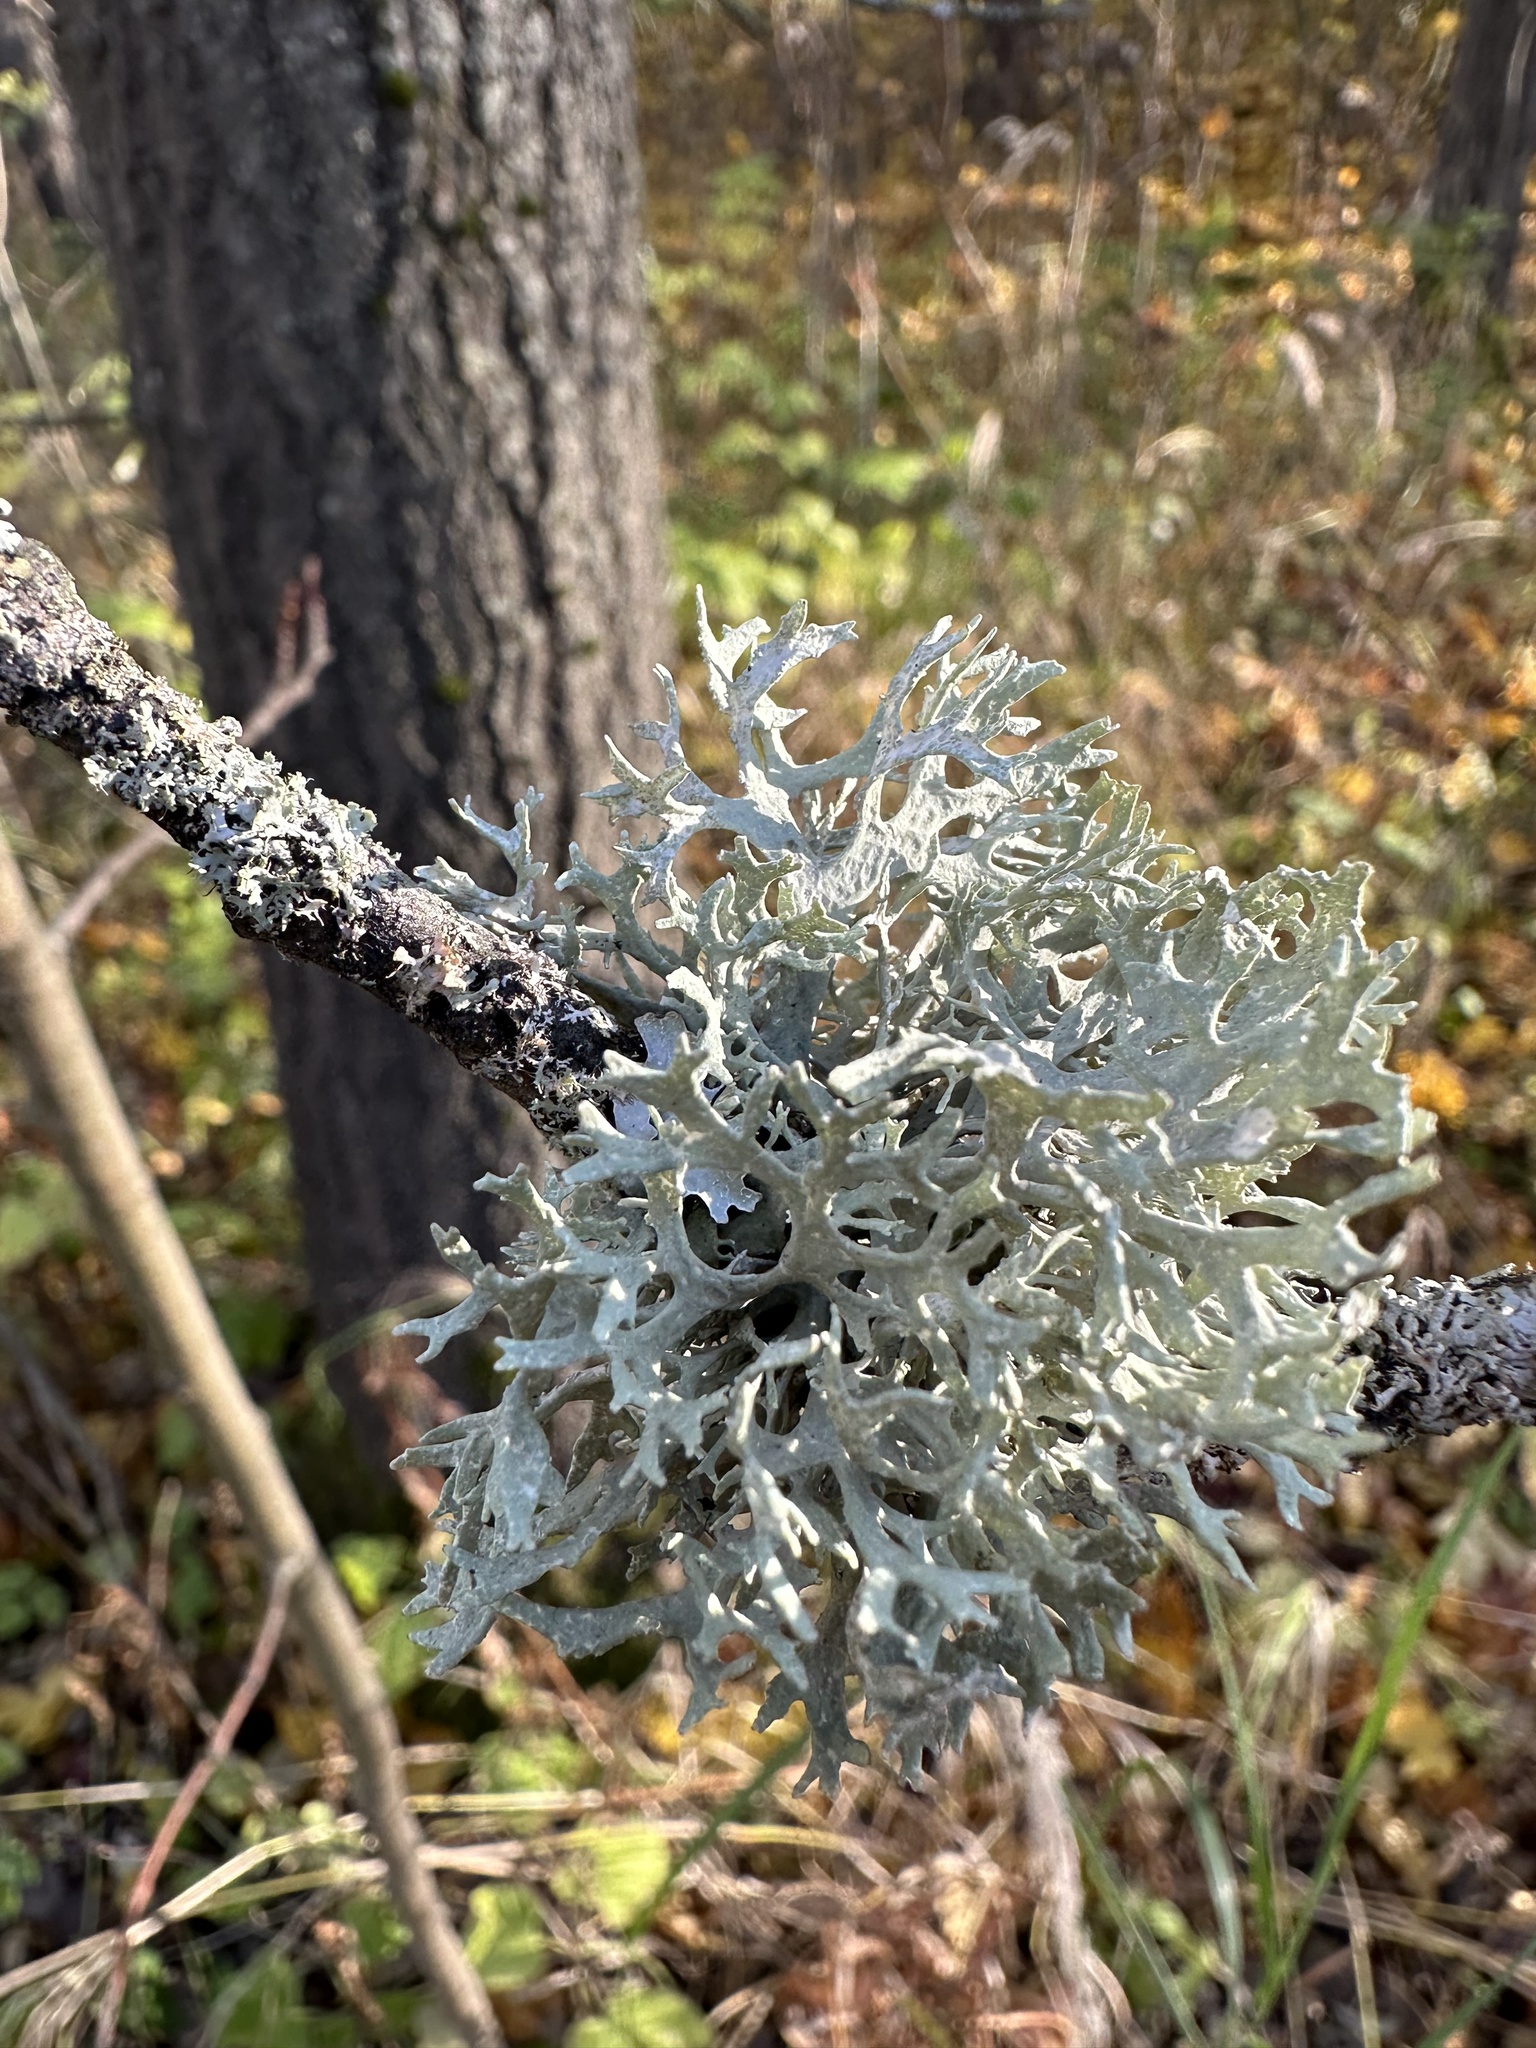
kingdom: Fungi
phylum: Ascomycota
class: Lecanoromycetes
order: Lecanorales
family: Parmeliaceae
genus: Evernia
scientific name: Evernia prunastri
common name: Oak moss
